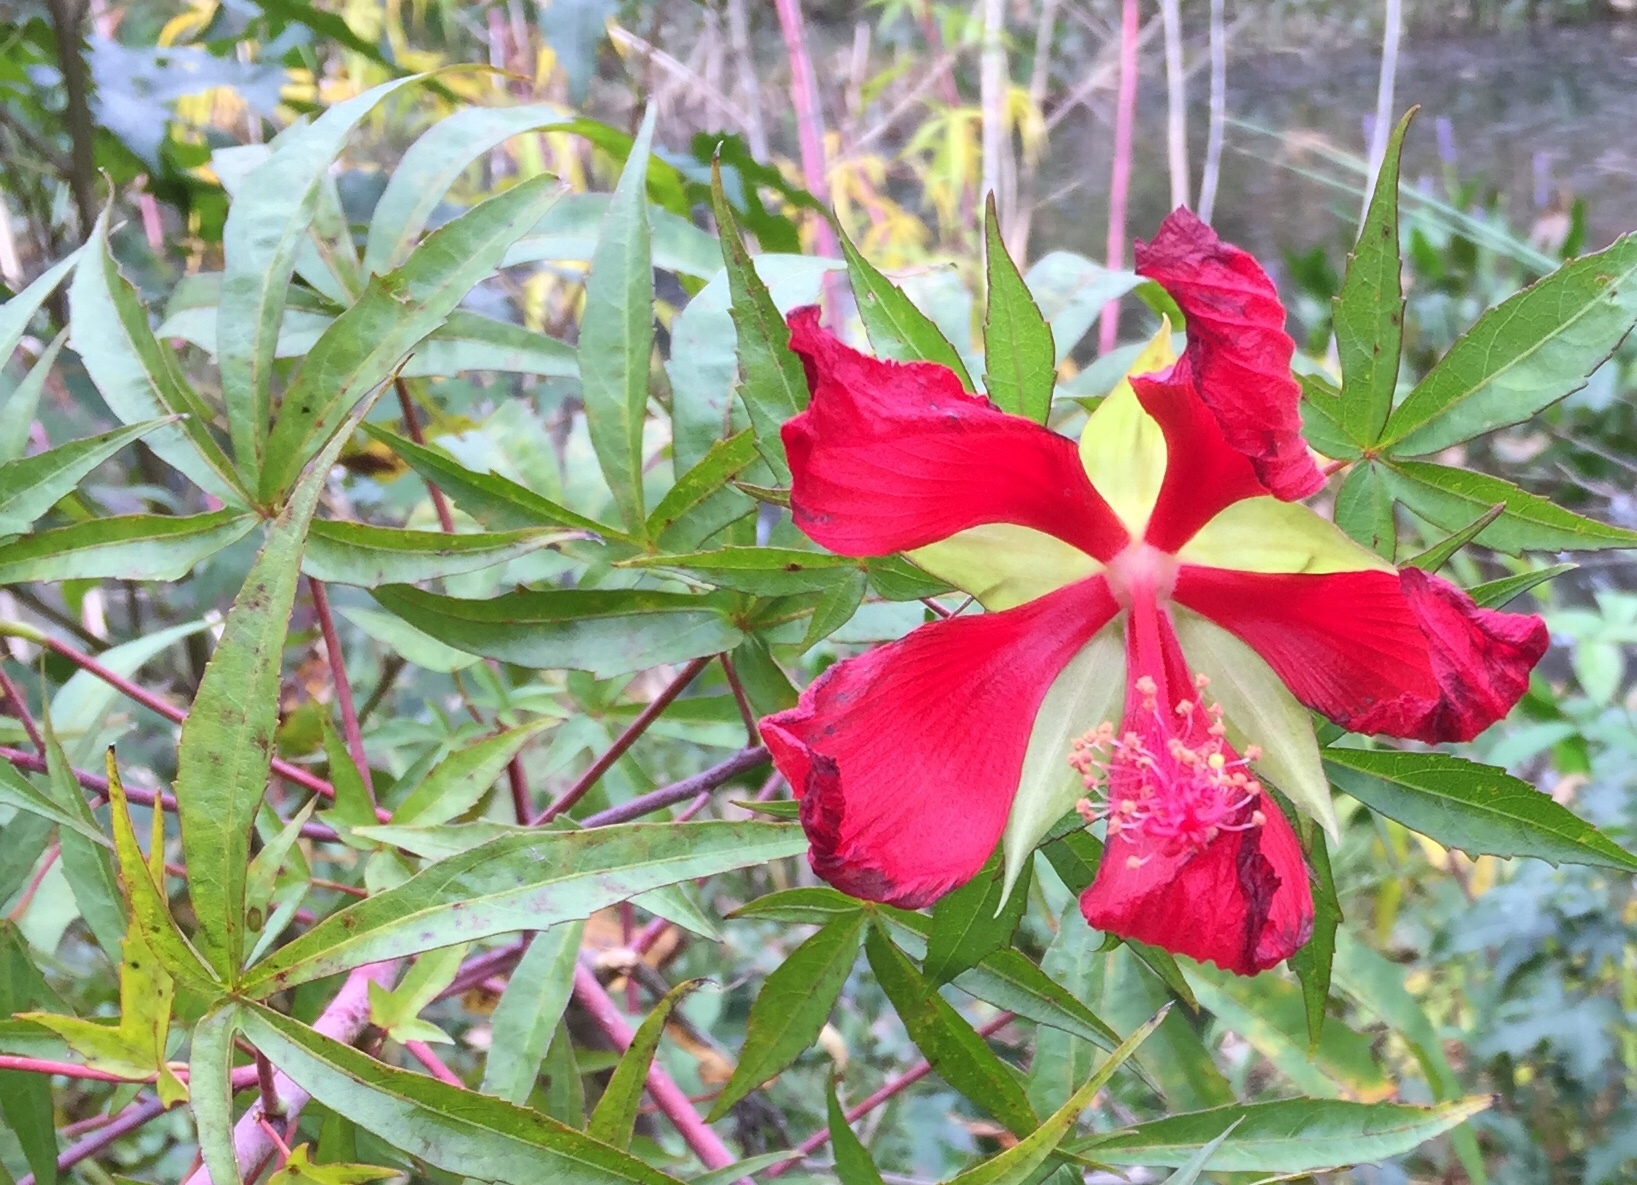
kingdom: Plantae
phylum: Tracheophyta
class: Magnoliopsida
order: Malvales
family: Malvaceae
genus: Hibiscus
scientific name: Hibiscus coccineus
